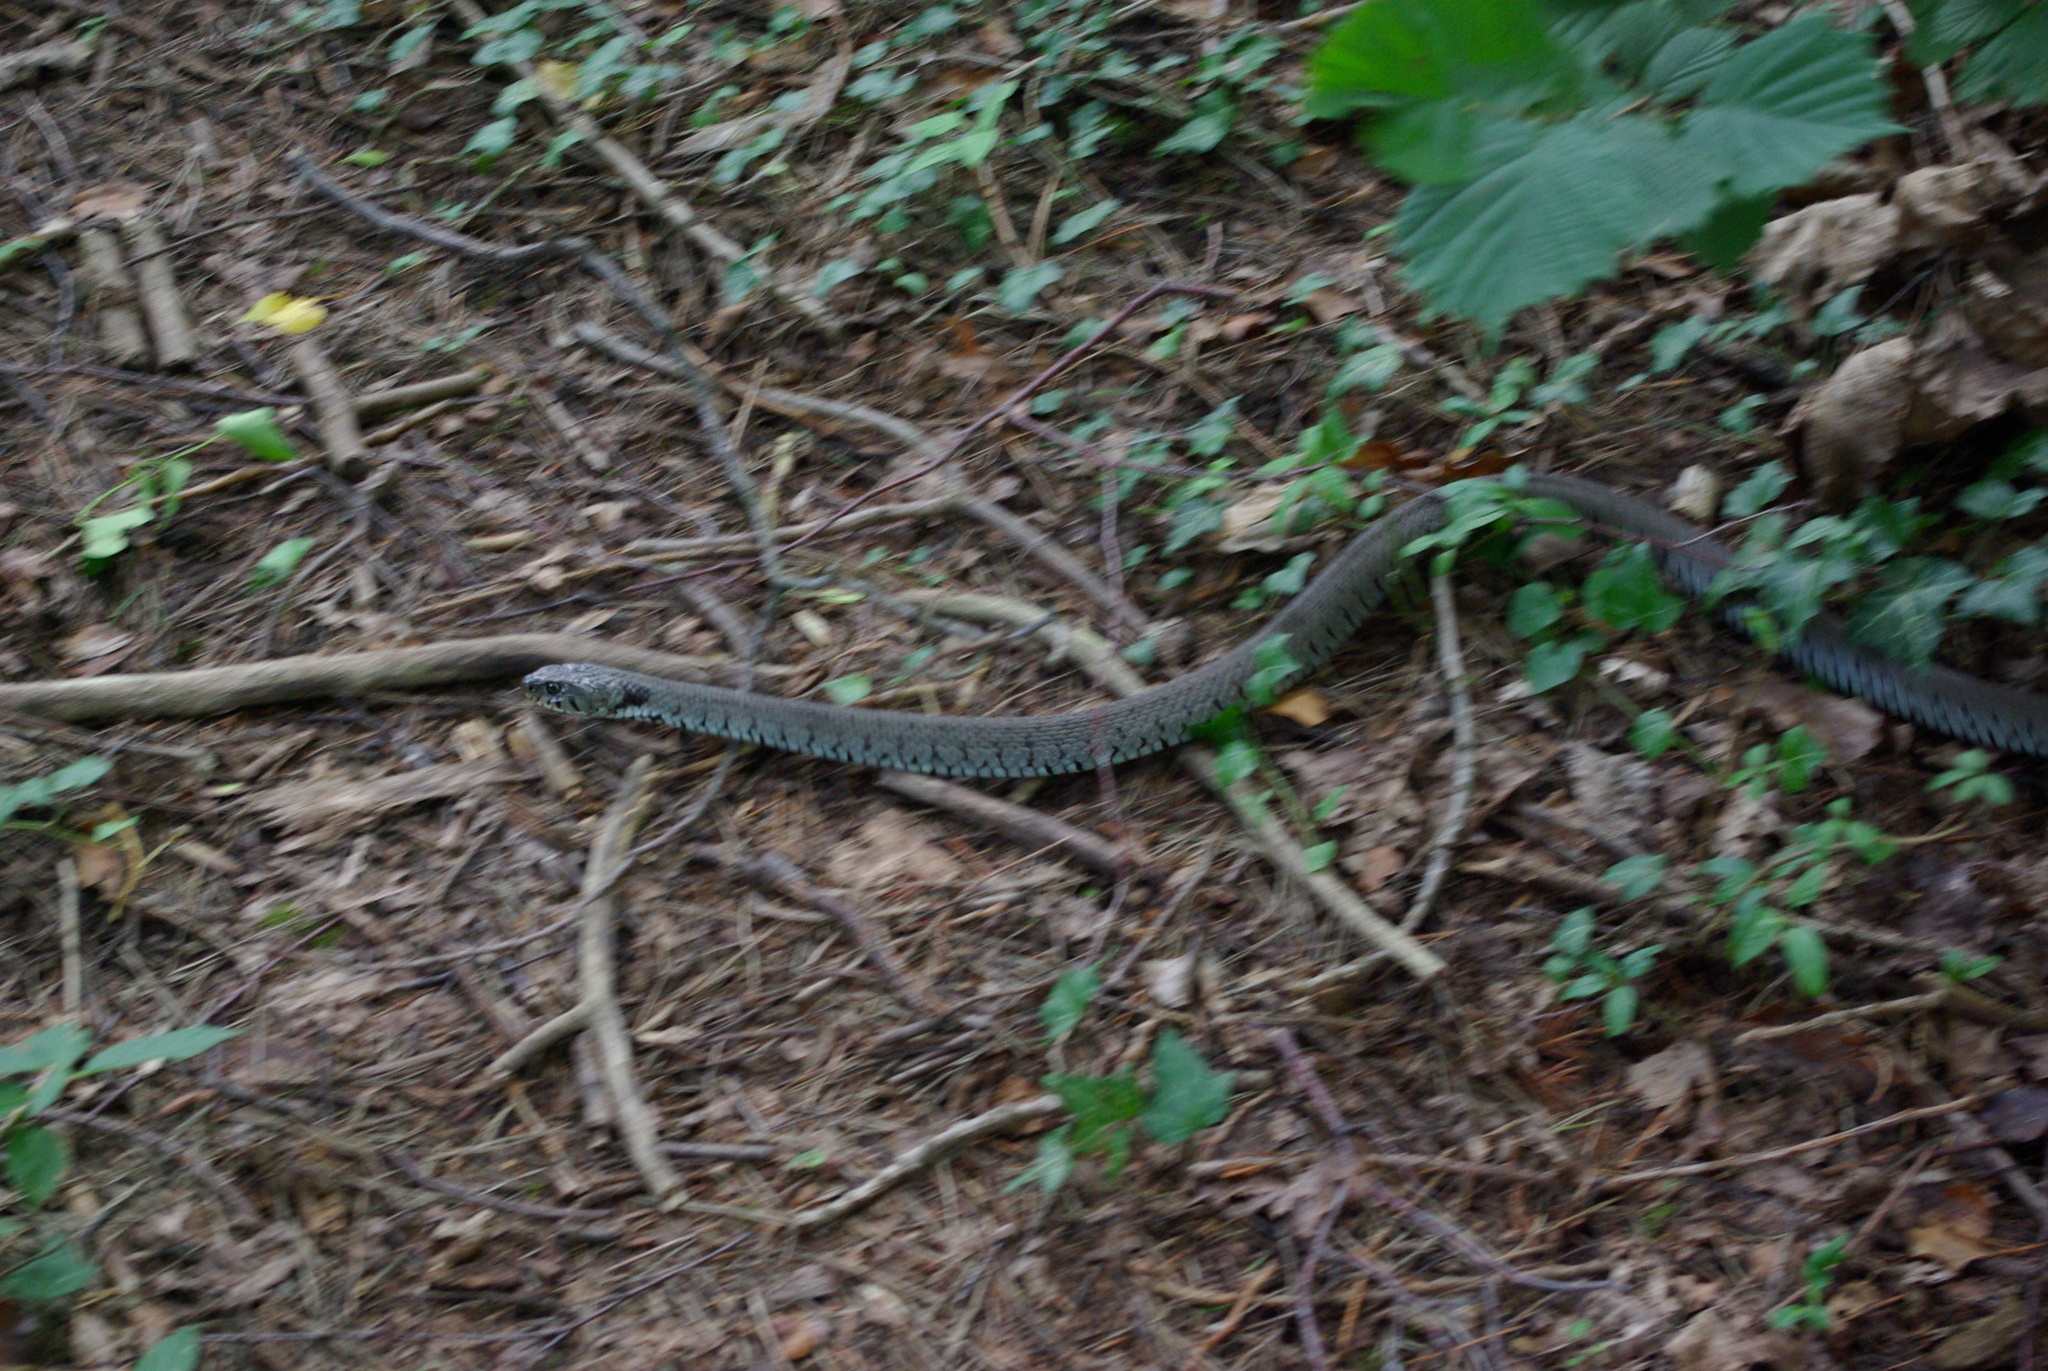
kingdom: Animalia
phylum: Chordata
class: Squamata
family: Colubridae
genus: Natrix
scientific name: Natrix helvetica
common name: Banded grass snake
